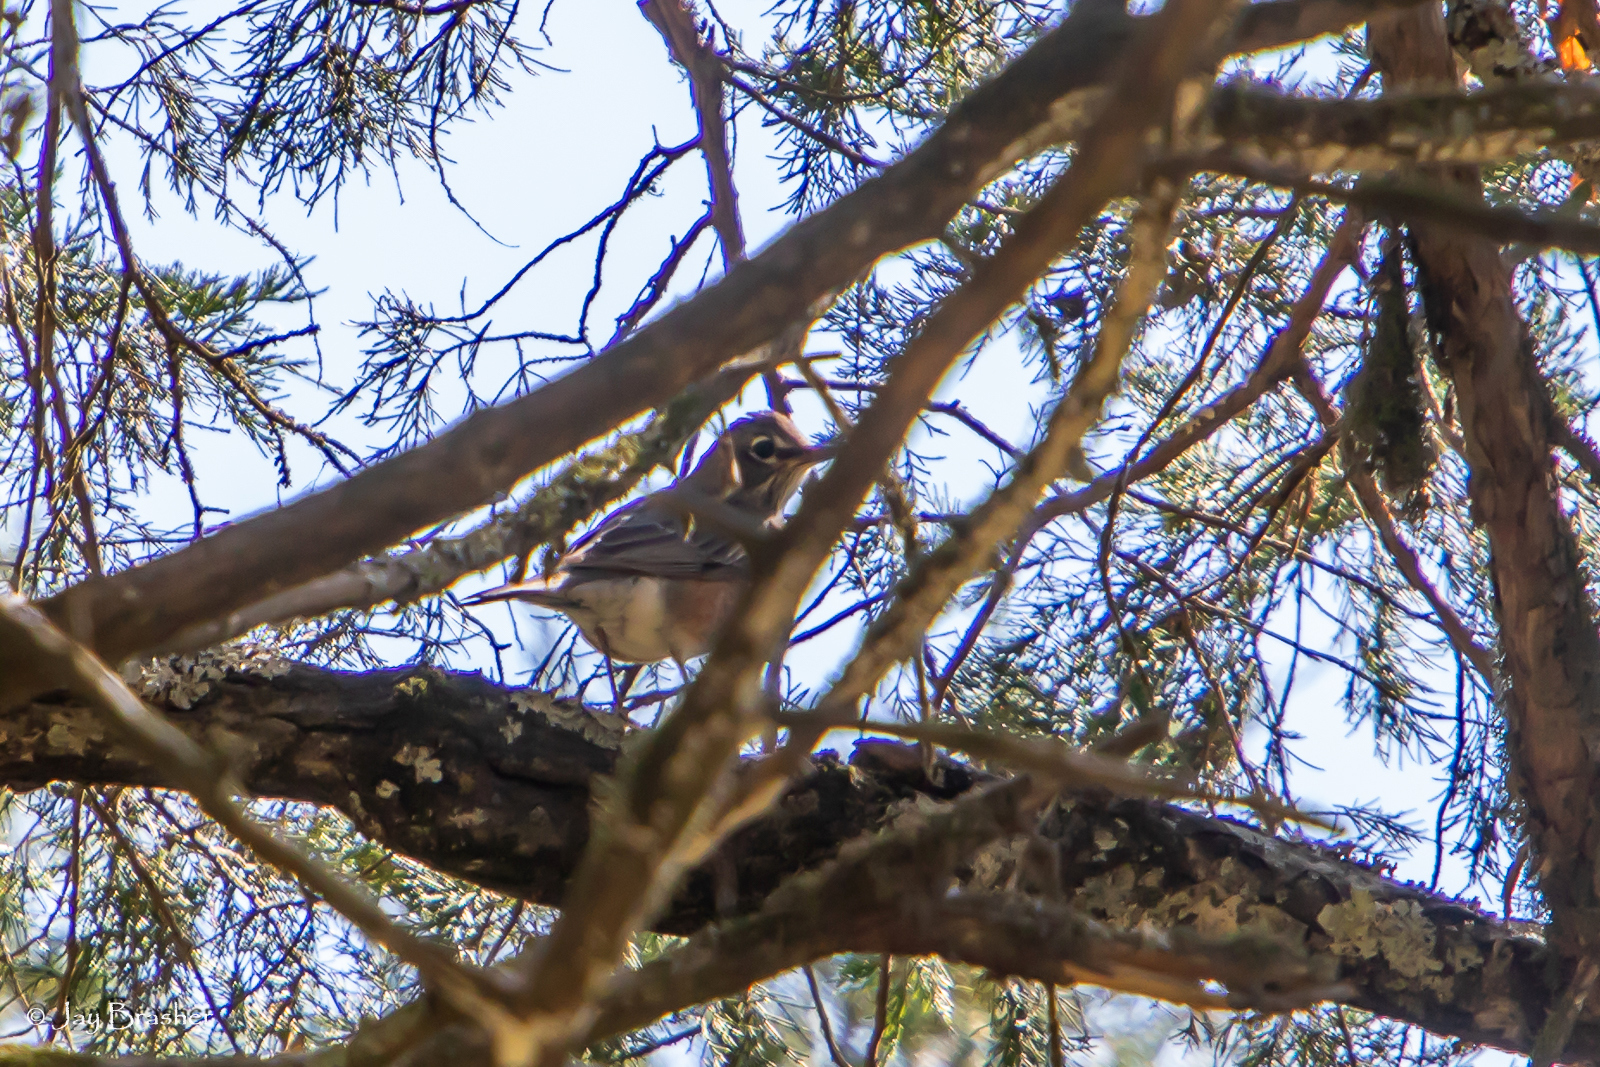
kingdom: Animalia
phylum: Chordata
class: Aves
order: Passeriformes
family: Turdidae
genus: Turdus
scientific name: Turdus migratorius
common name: American robin
